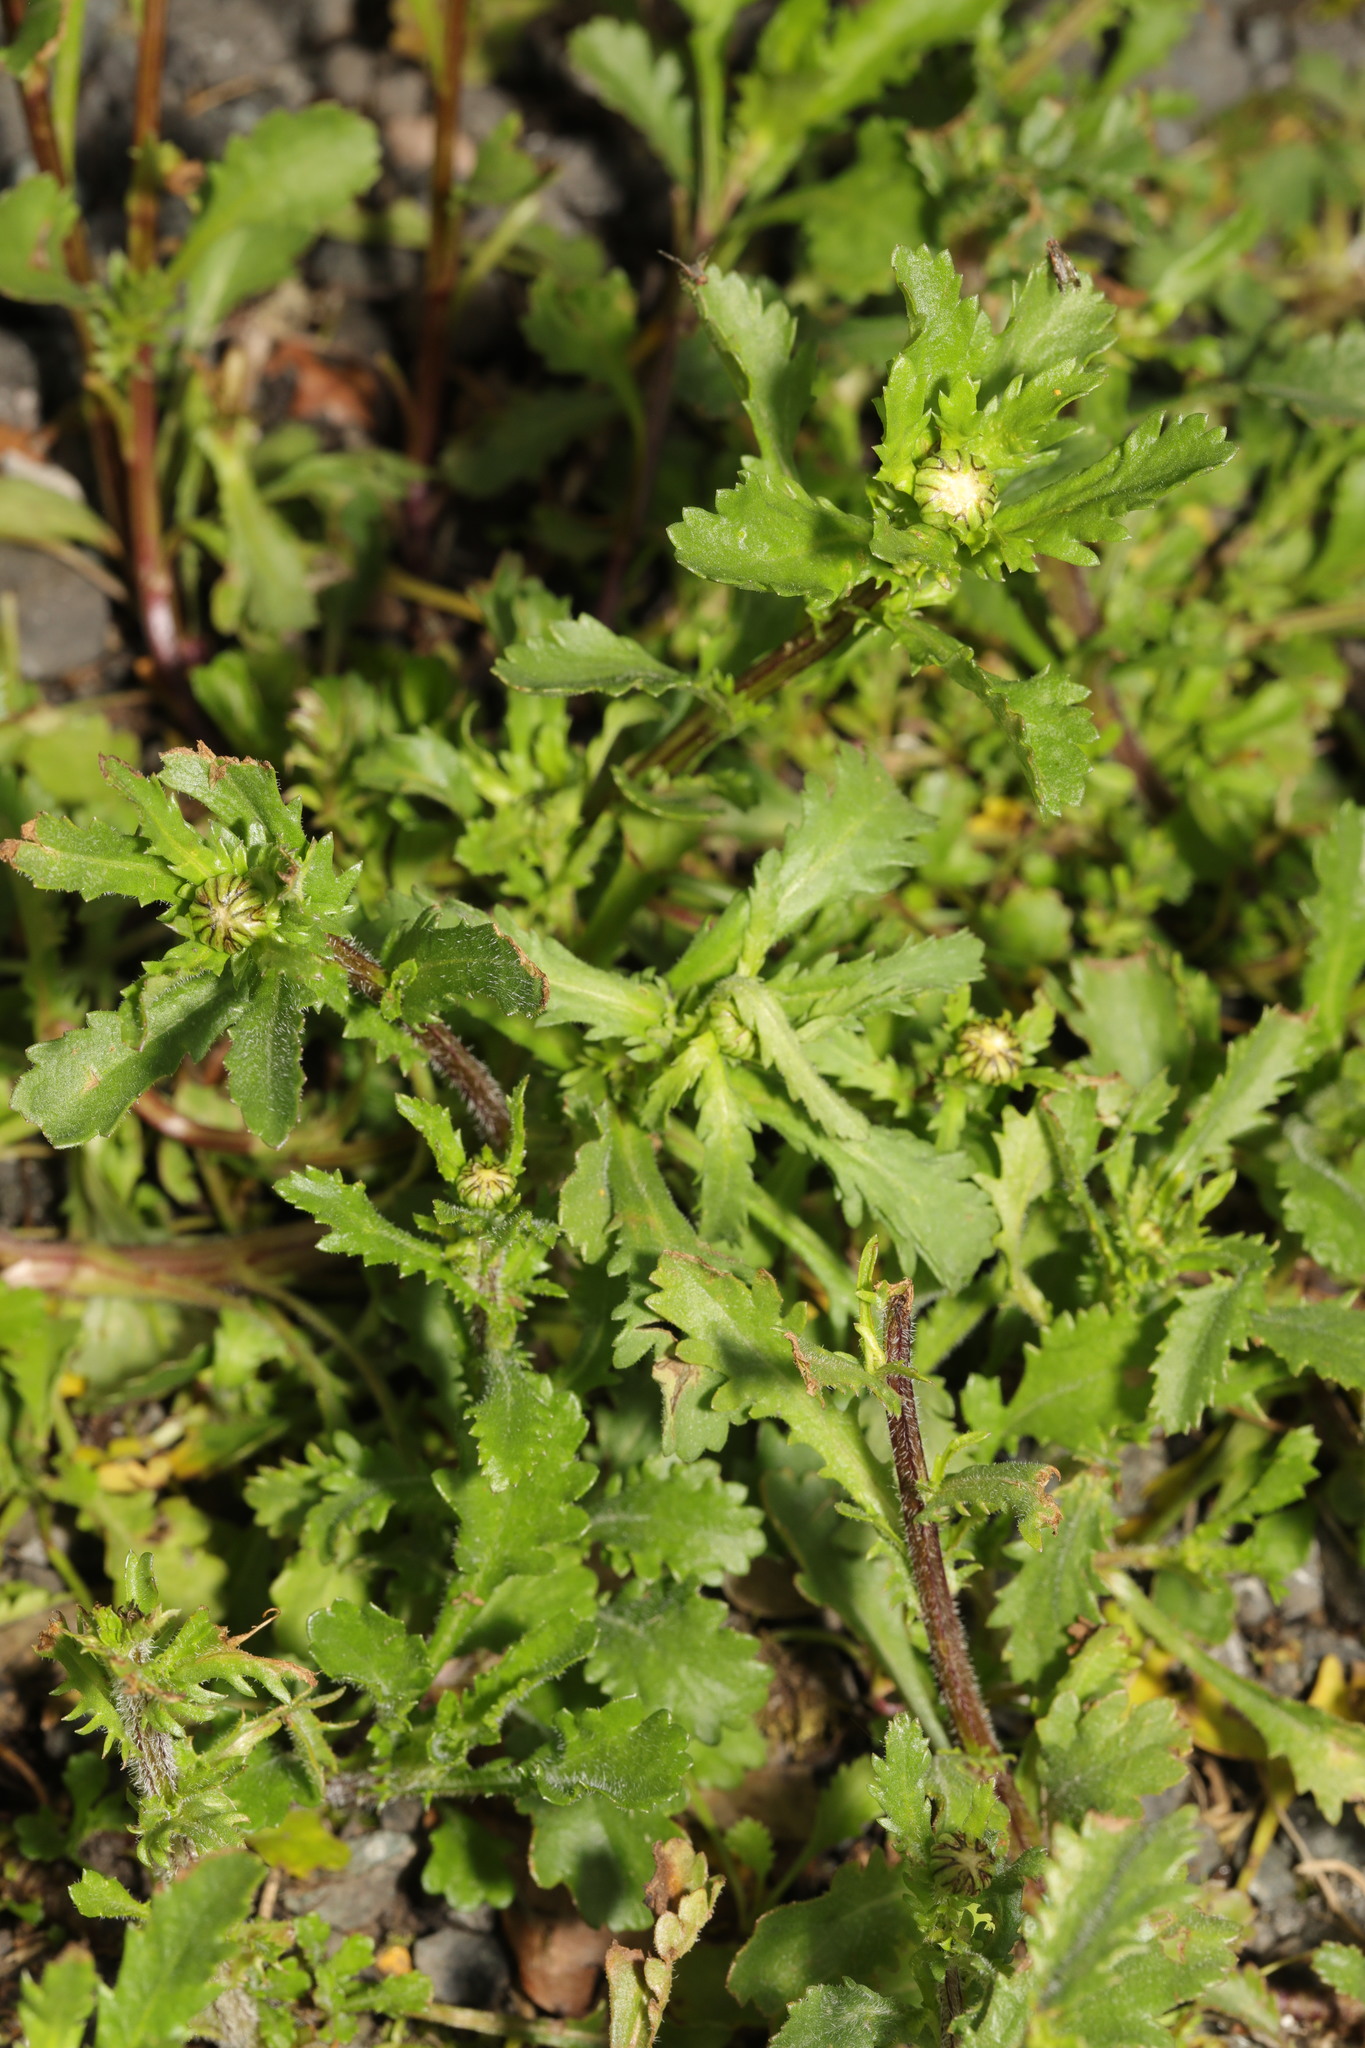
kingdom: Plantae
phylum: Tracheophyta
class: Magnoliopsida
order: Asterales
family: Asteraceae
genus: Leucanthemum
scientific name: Leucanthemum vulgare
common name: Oxeye daisy
